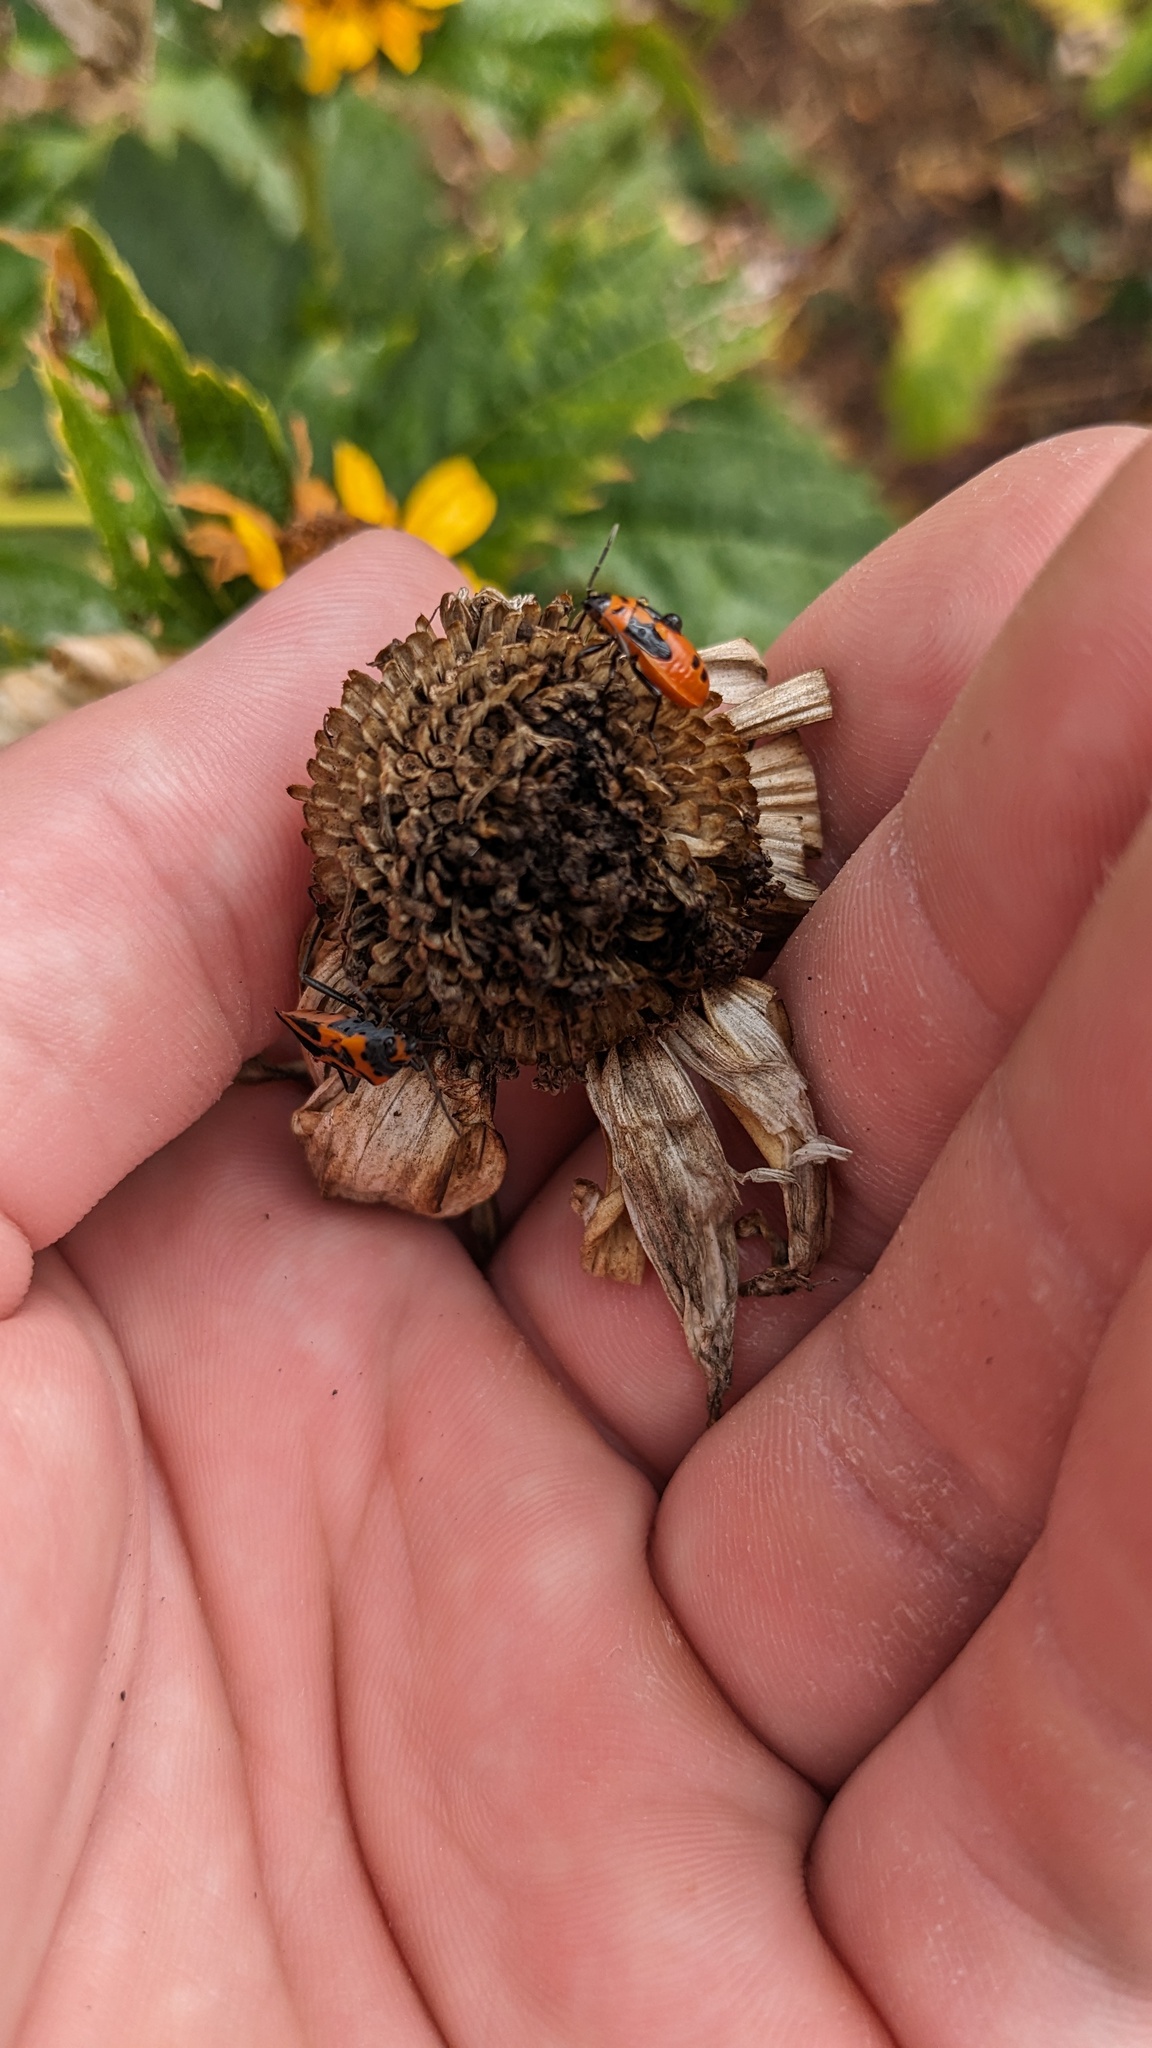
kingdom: Animalia
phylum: Arthropoda
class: Insecta
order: Hemiptera
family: Lygaeidae
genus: Lygaeus
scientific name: Lygaeus turcicus
